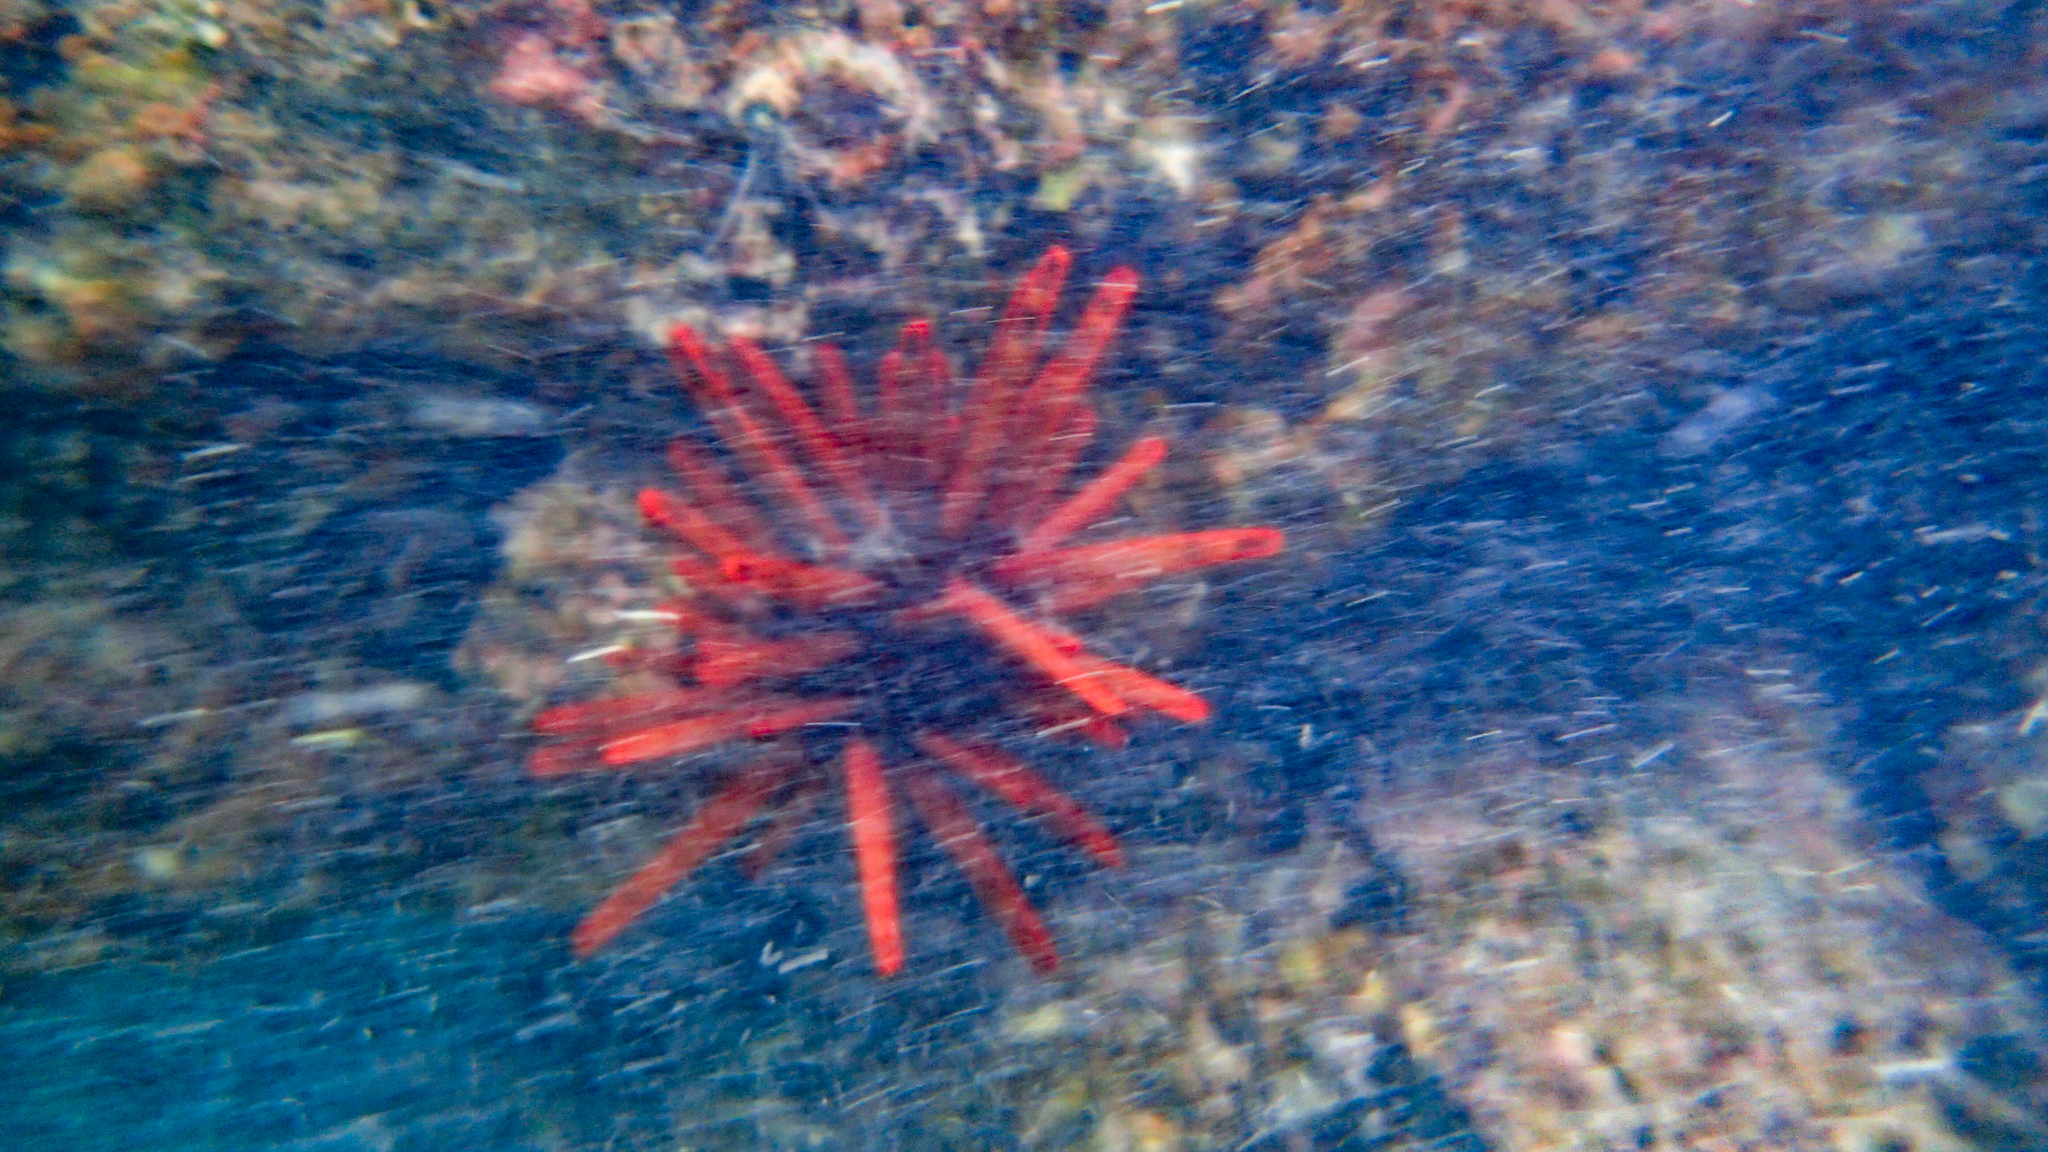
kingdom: Animalia
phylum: Echinodermata
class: Echinoidea
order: Camarodonta
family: Echinometridae
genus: Heterocentrotus
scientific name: Heterocentrotus mamillatus
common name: Slate pencil urchin
